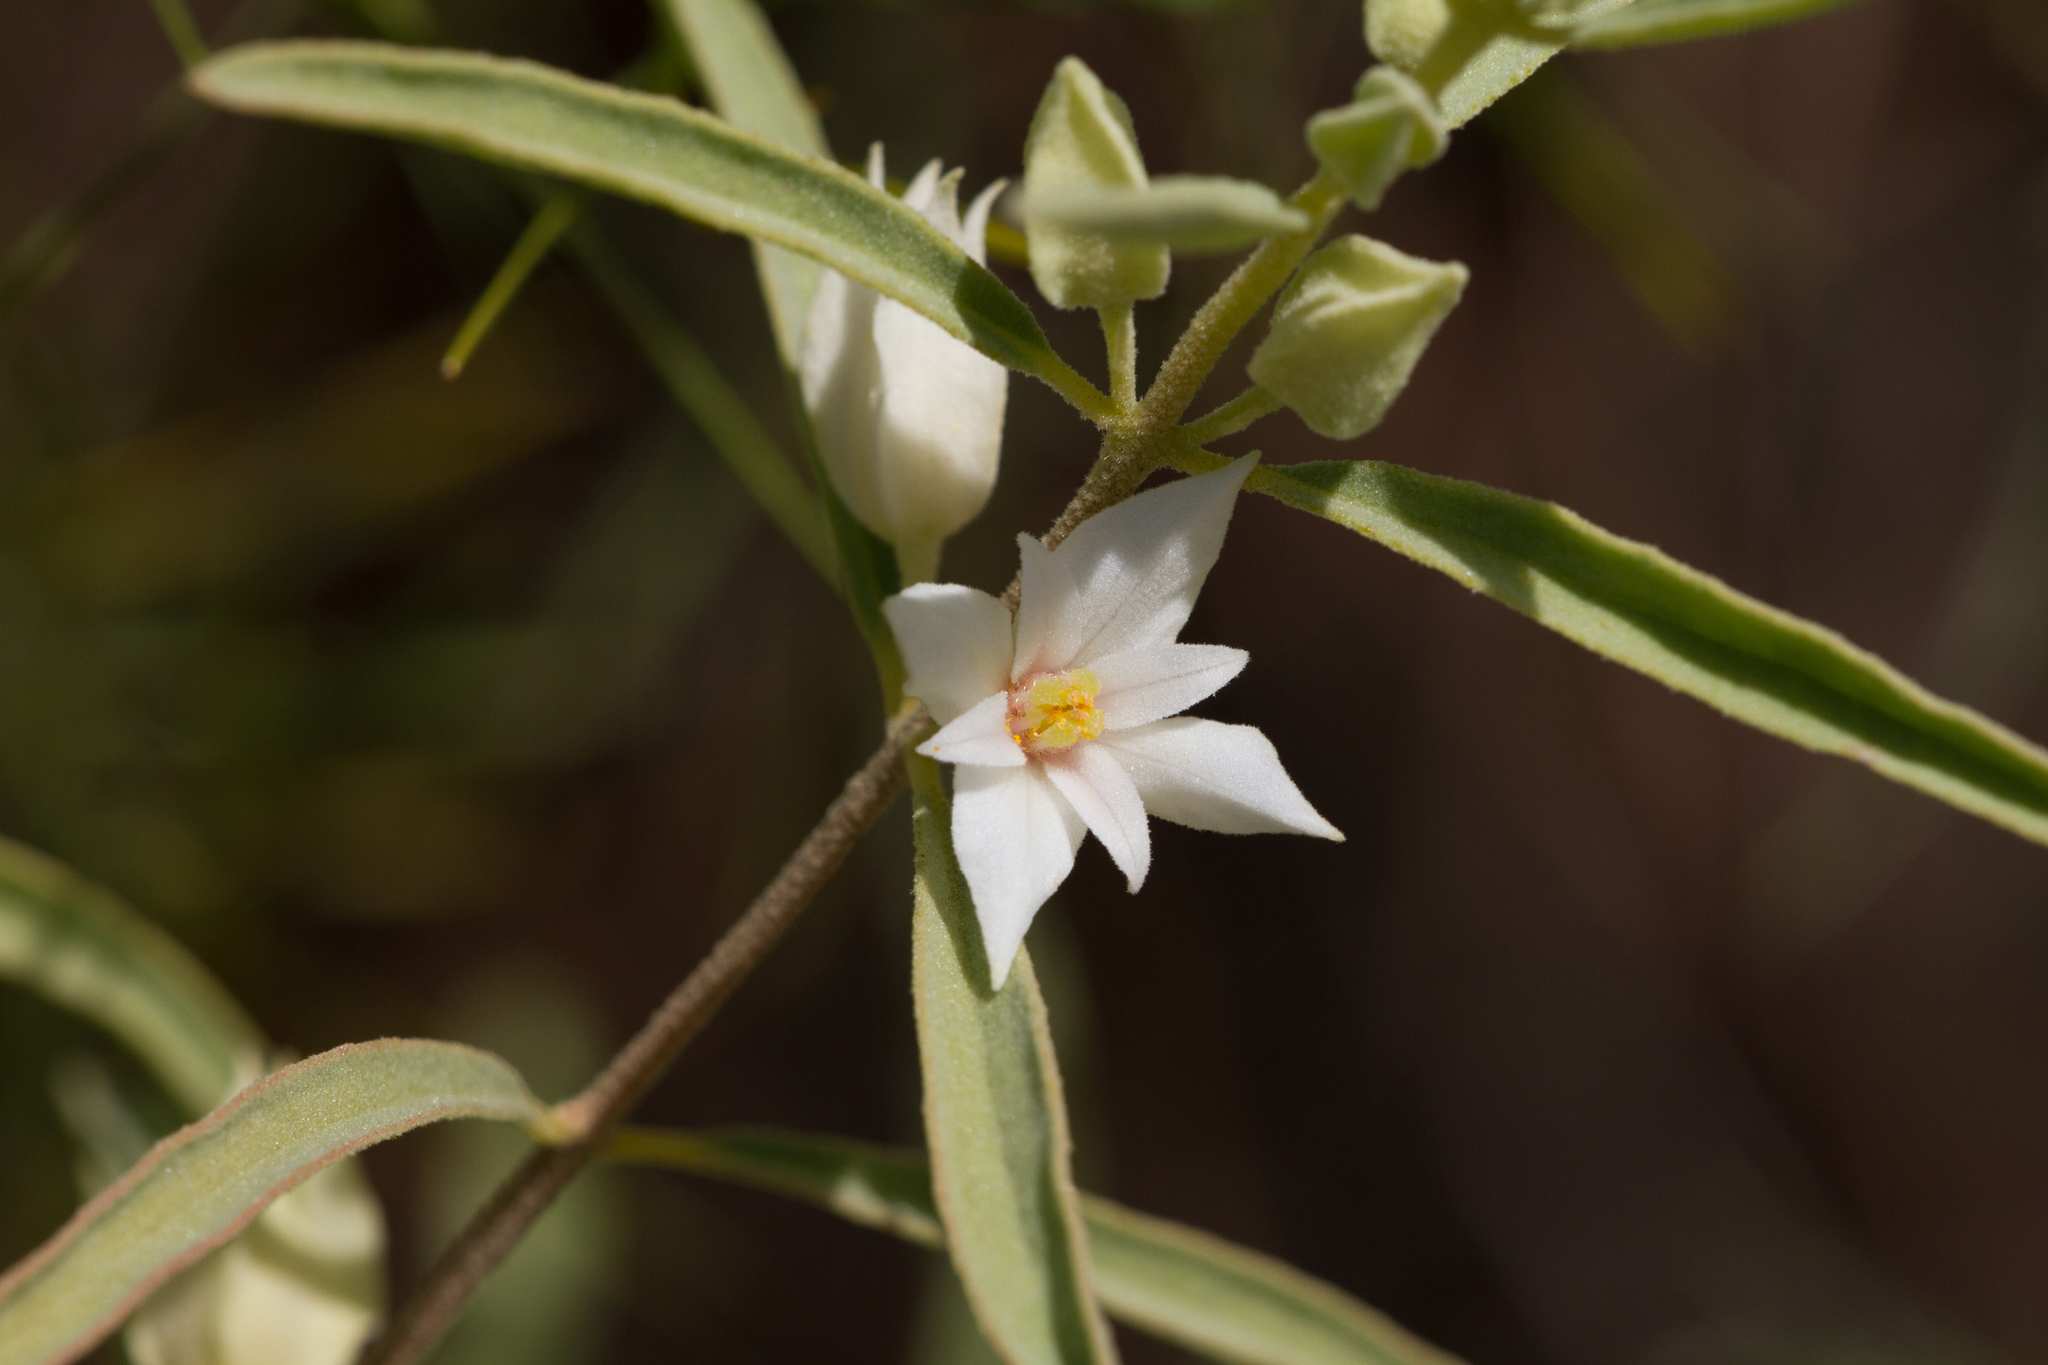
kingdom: Plantae
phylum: Tracheophyta
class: Magnoliopsida
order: Sapindales
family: Rutaceae
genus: Boronia
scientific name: Boronia grandisepala
